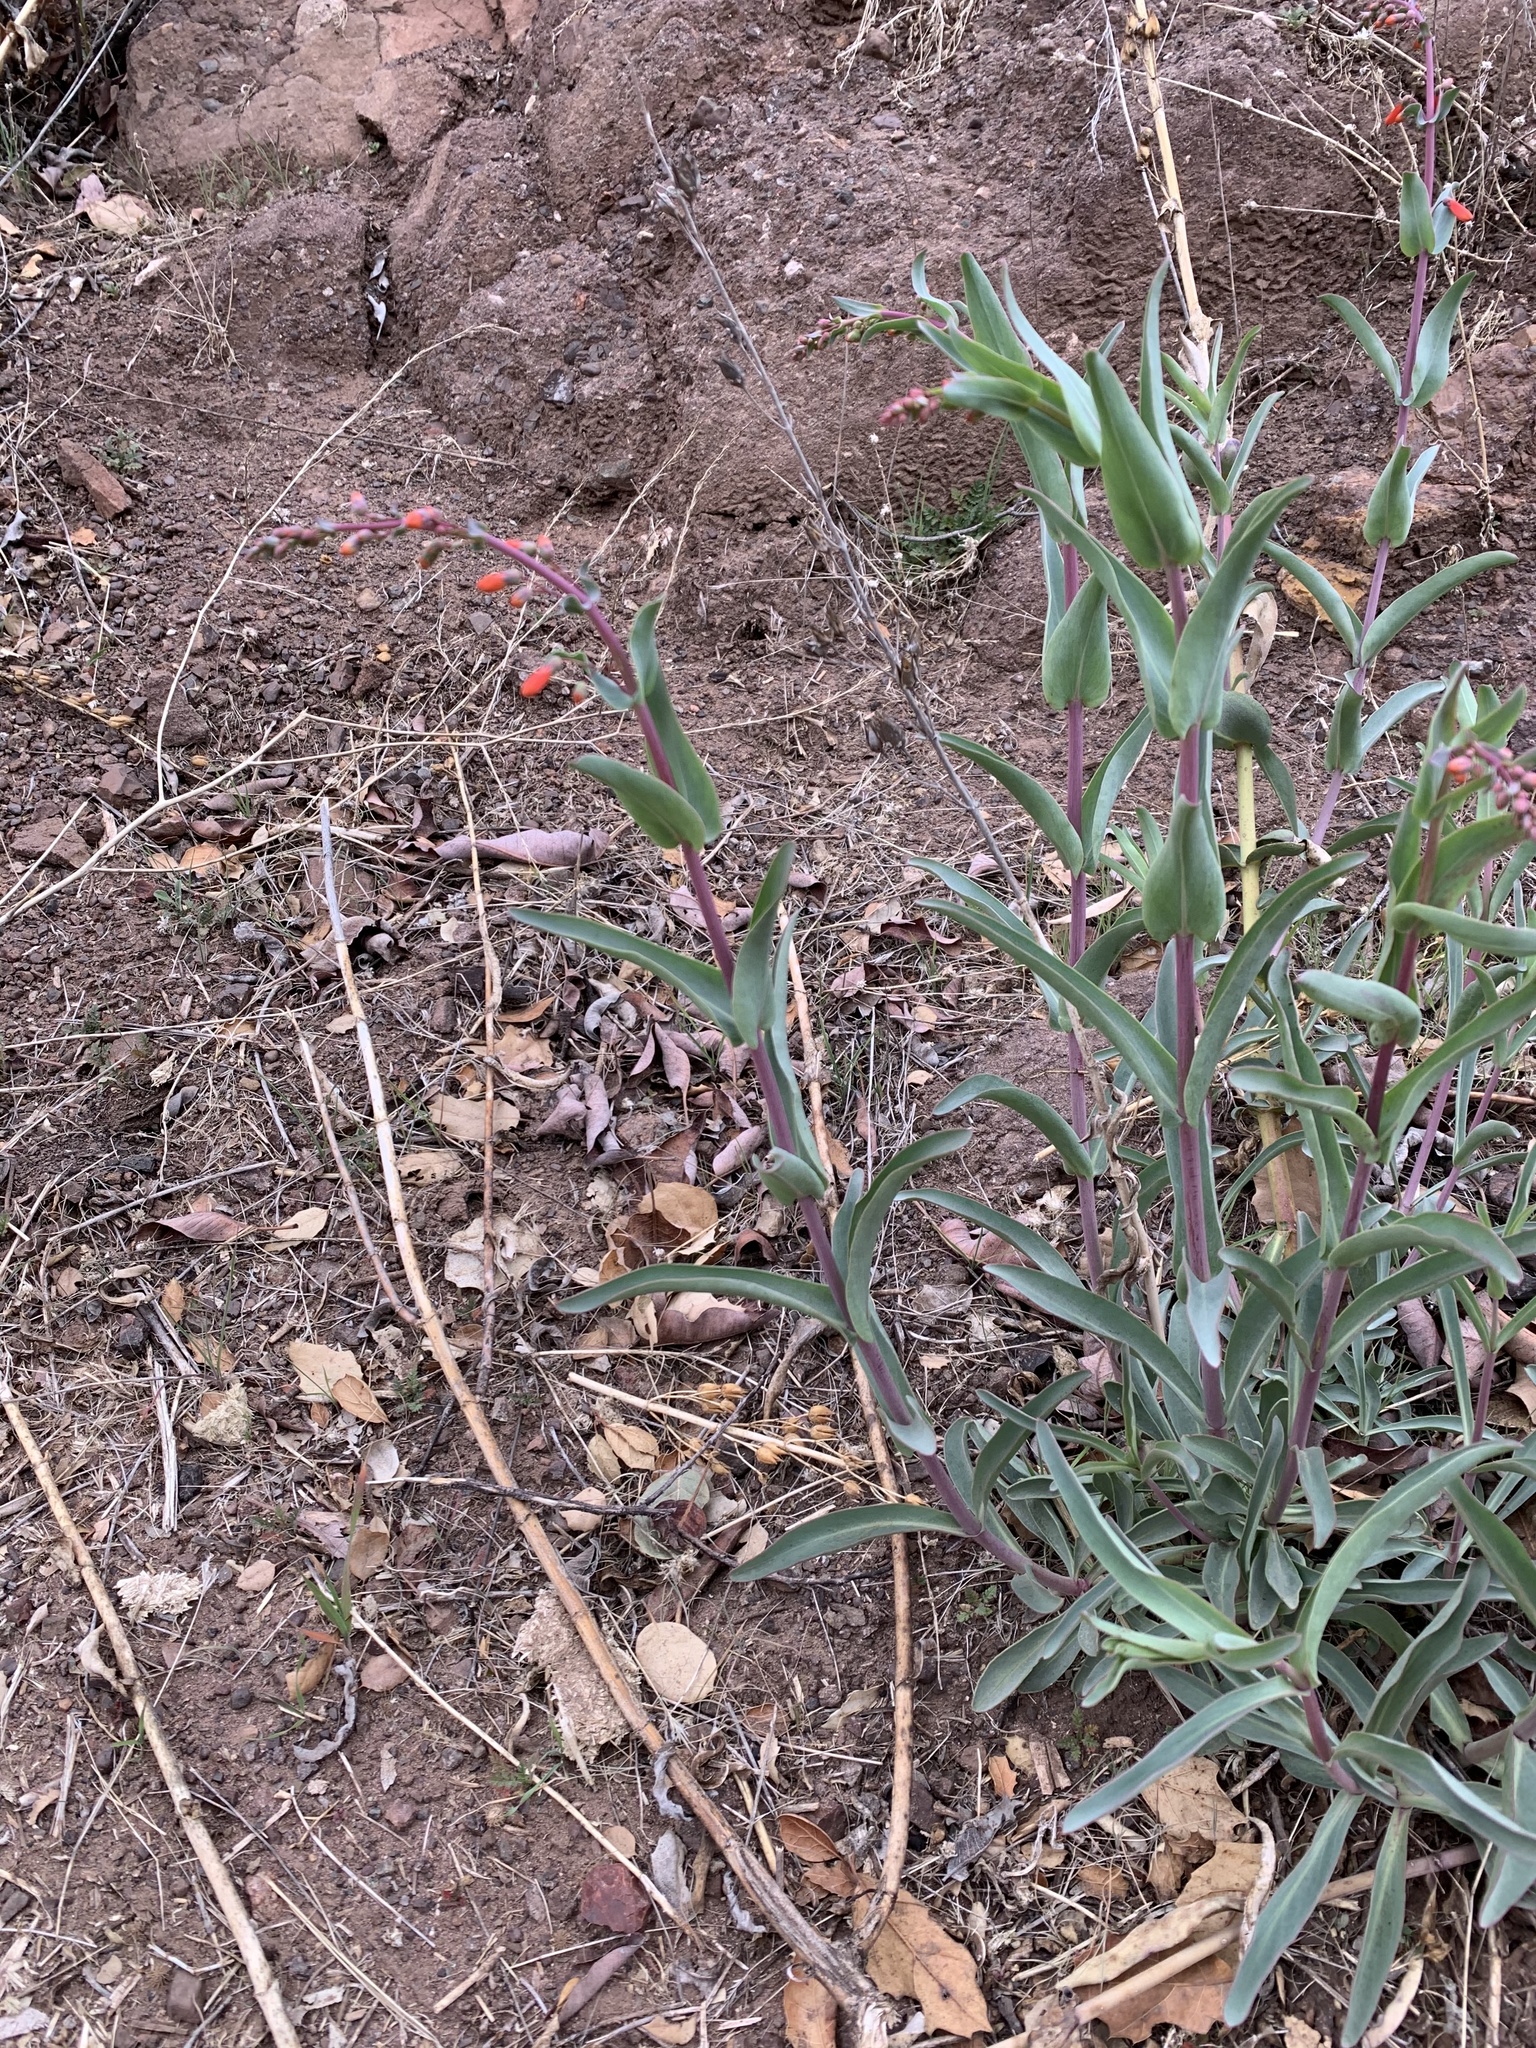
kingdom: Plantae
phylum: Tracheophyta
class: Magnoliopsida
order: Lamiales
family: Plantaginaceae
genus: Penstemon
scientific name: Penstemon centranthifolius
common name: Scarlet bugler
